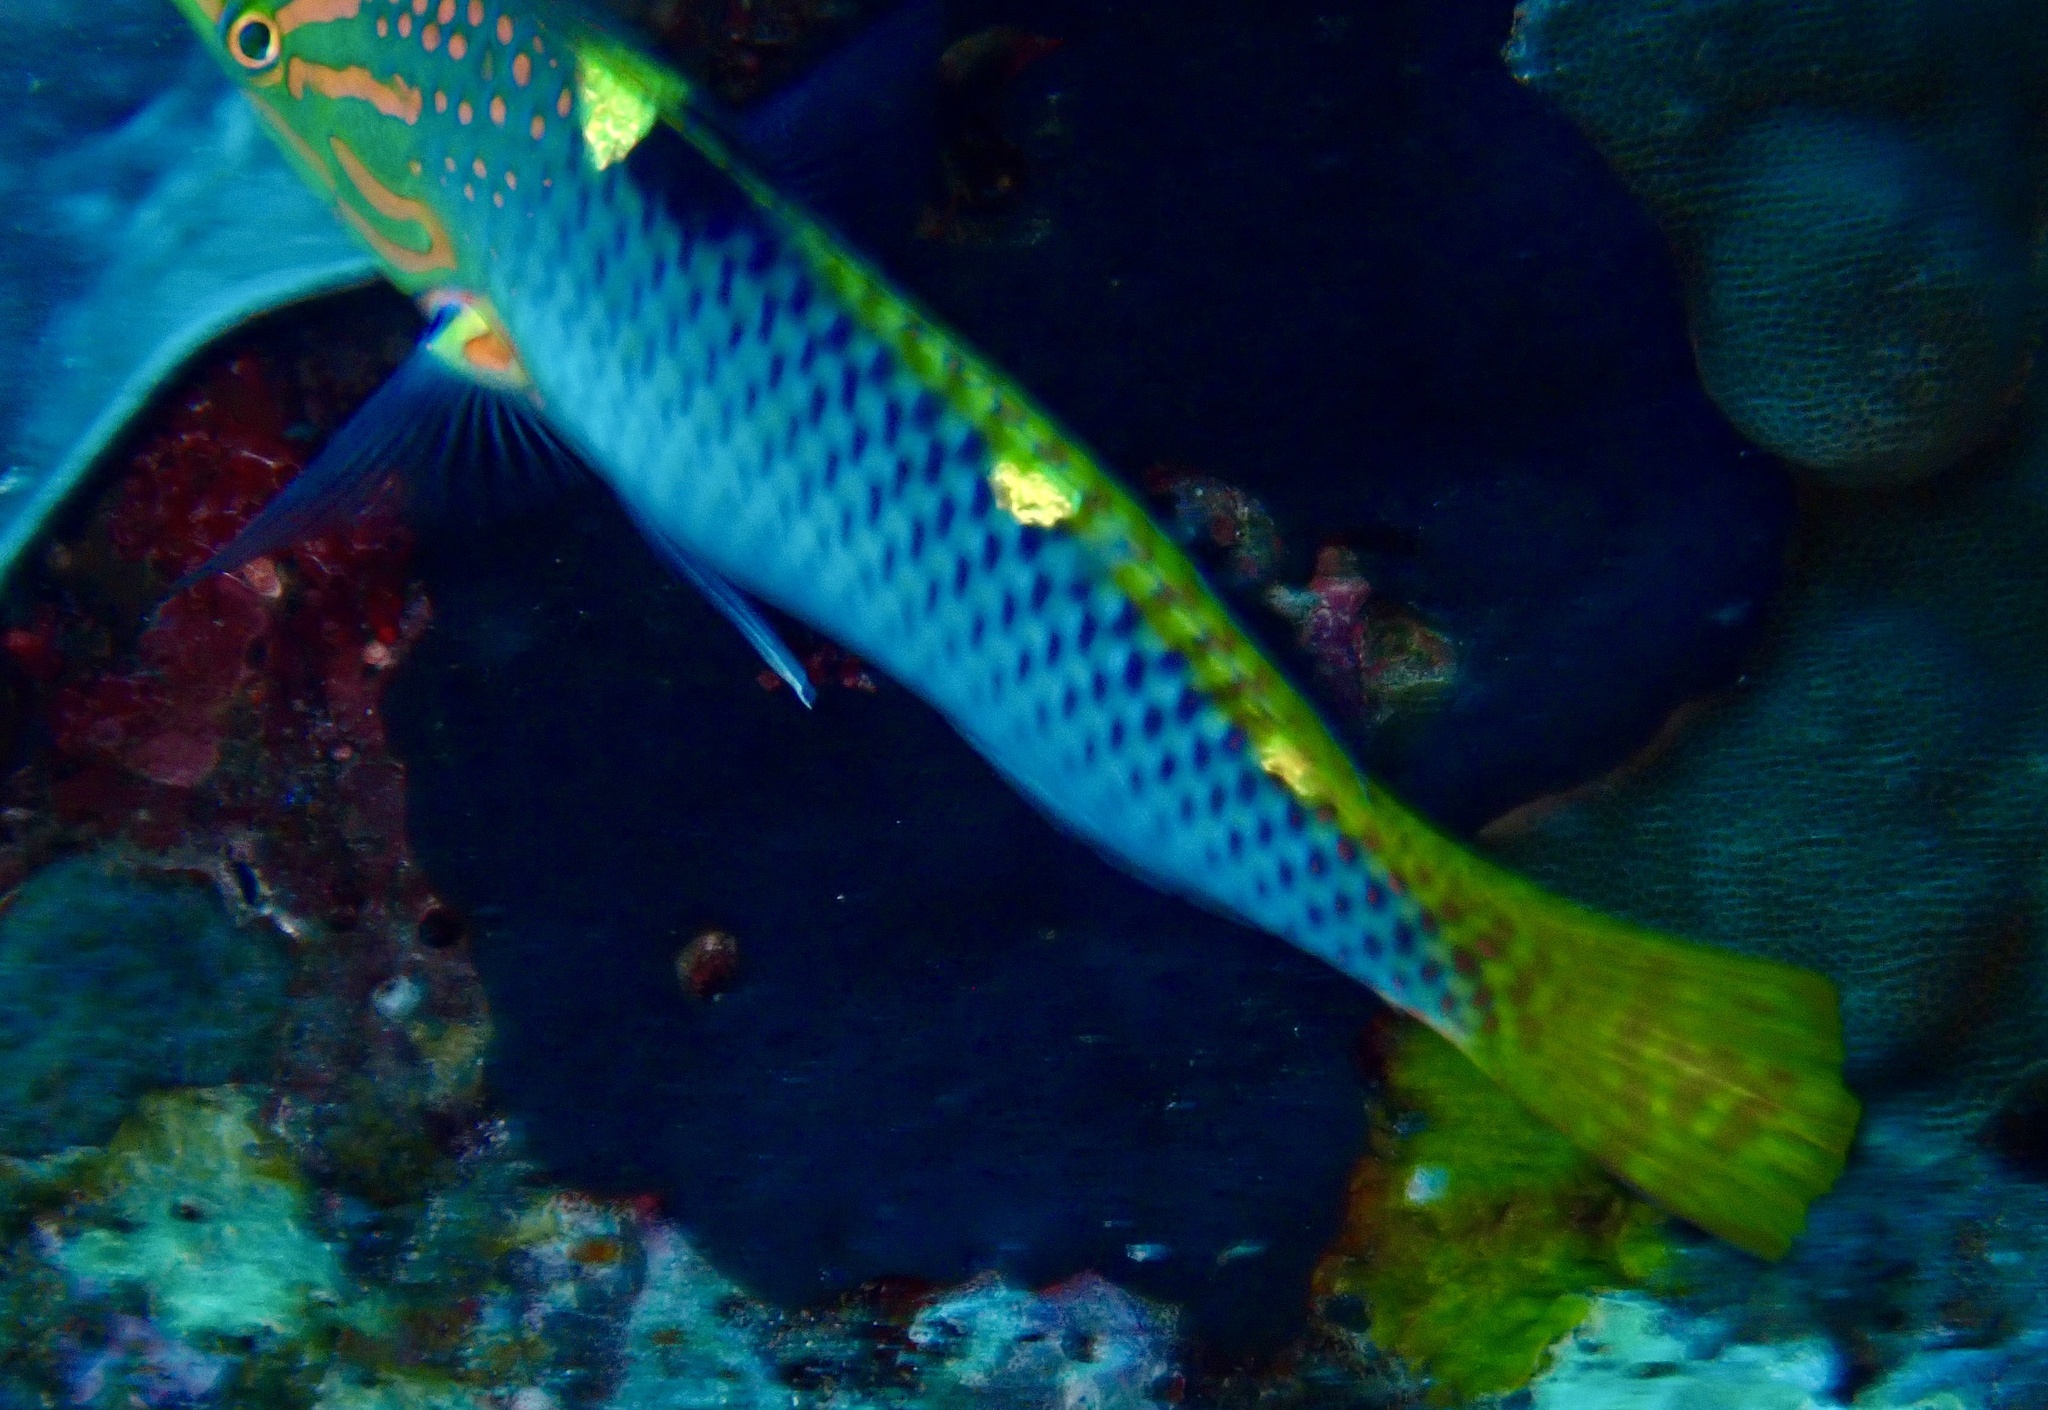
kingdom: Animalia
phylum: Chordata
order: Perciformes
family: Labridae
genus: Halichoeres
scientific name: Halichoeres hortulanus
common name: Checkerboard wrasse
